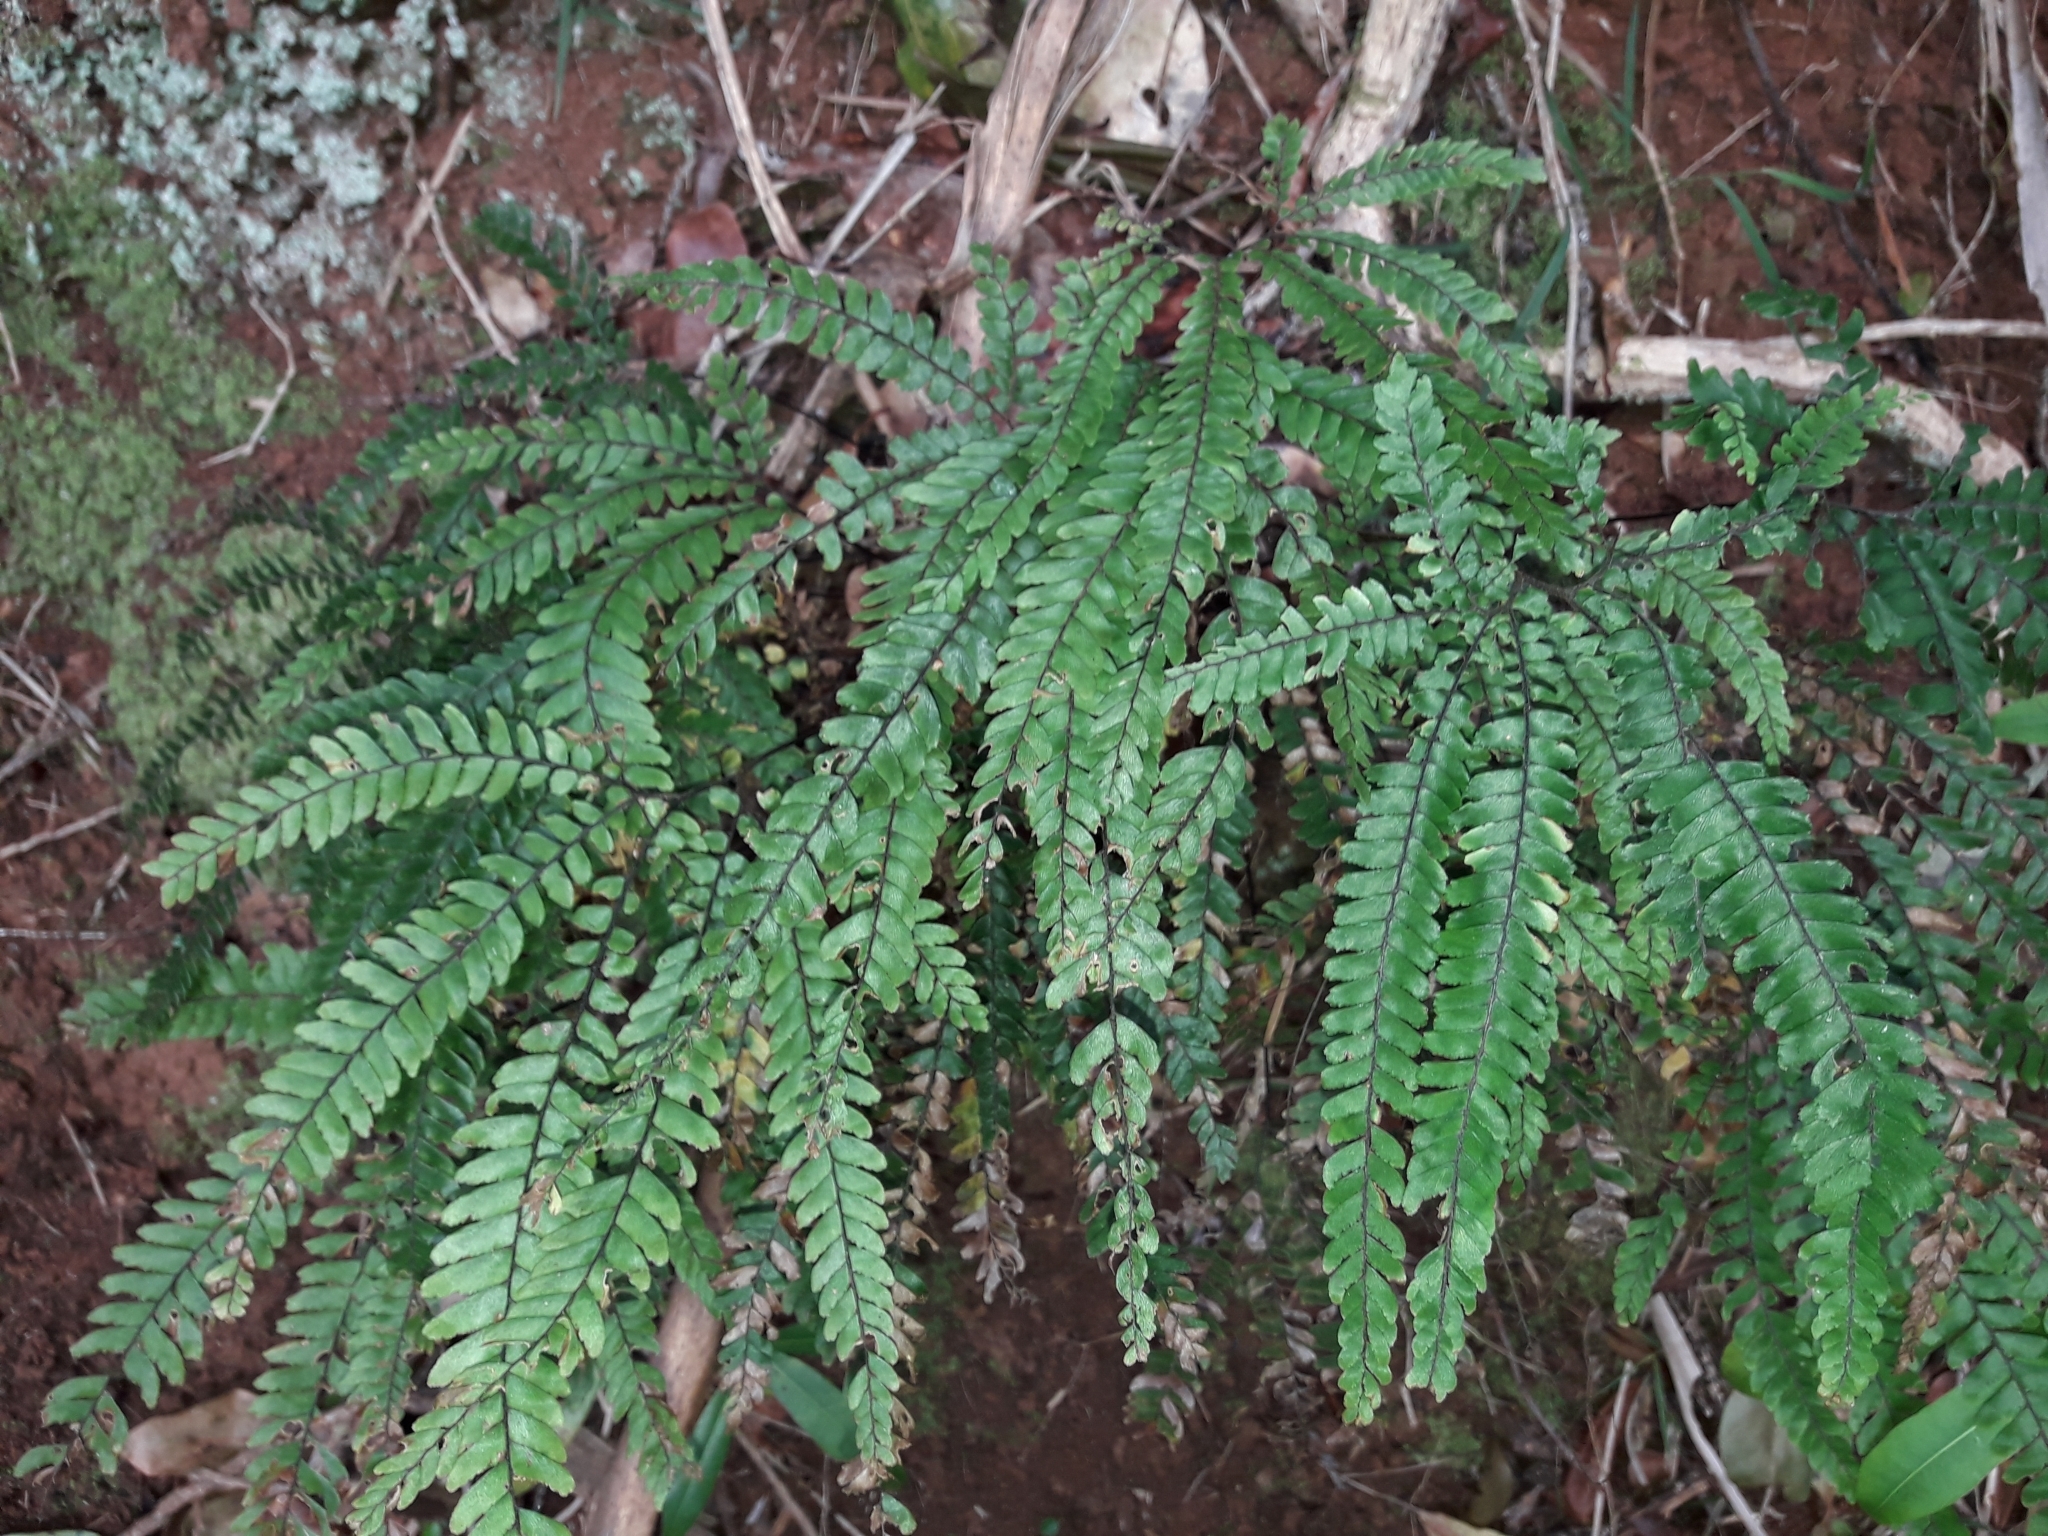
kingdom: Plantae
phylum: Tracheophyta
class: Polypodiopsida
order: Polypodiales
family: Pteridaceae
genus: Adiantum
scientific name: Adiantum hispidulum
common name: Rough maidenhair
